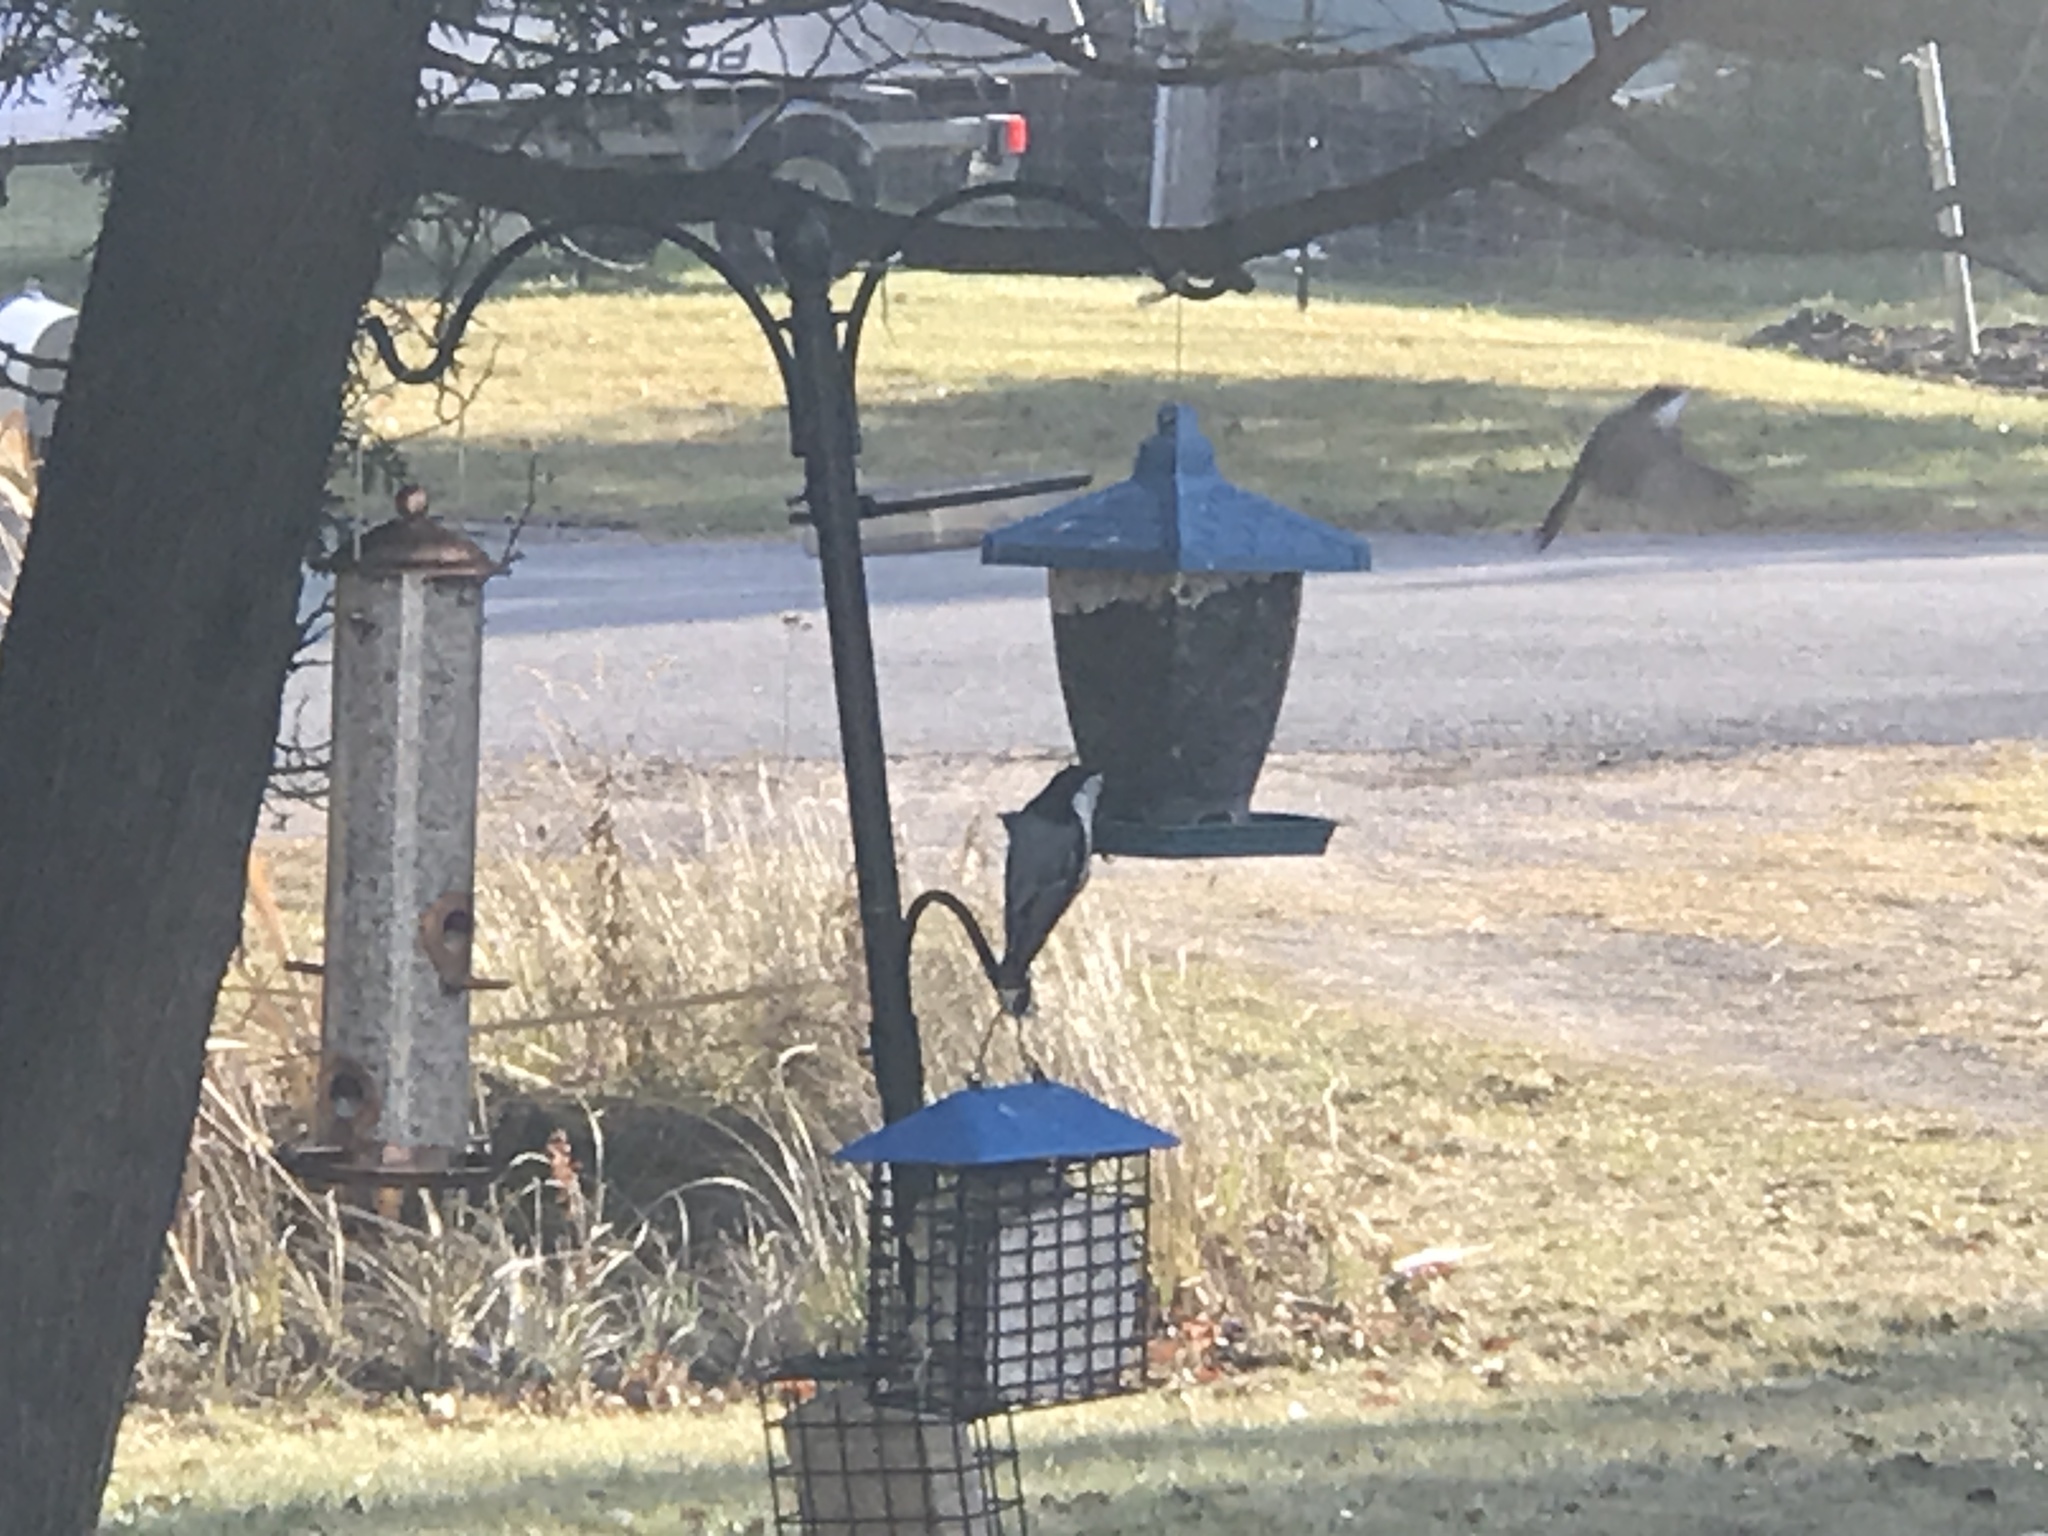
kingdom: Animalia
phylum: Chordata
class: Aves
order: Passeriformes
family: Sittidae
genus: Sitta
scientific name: Sitta carolinensis
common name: White-breasted nuthatch
